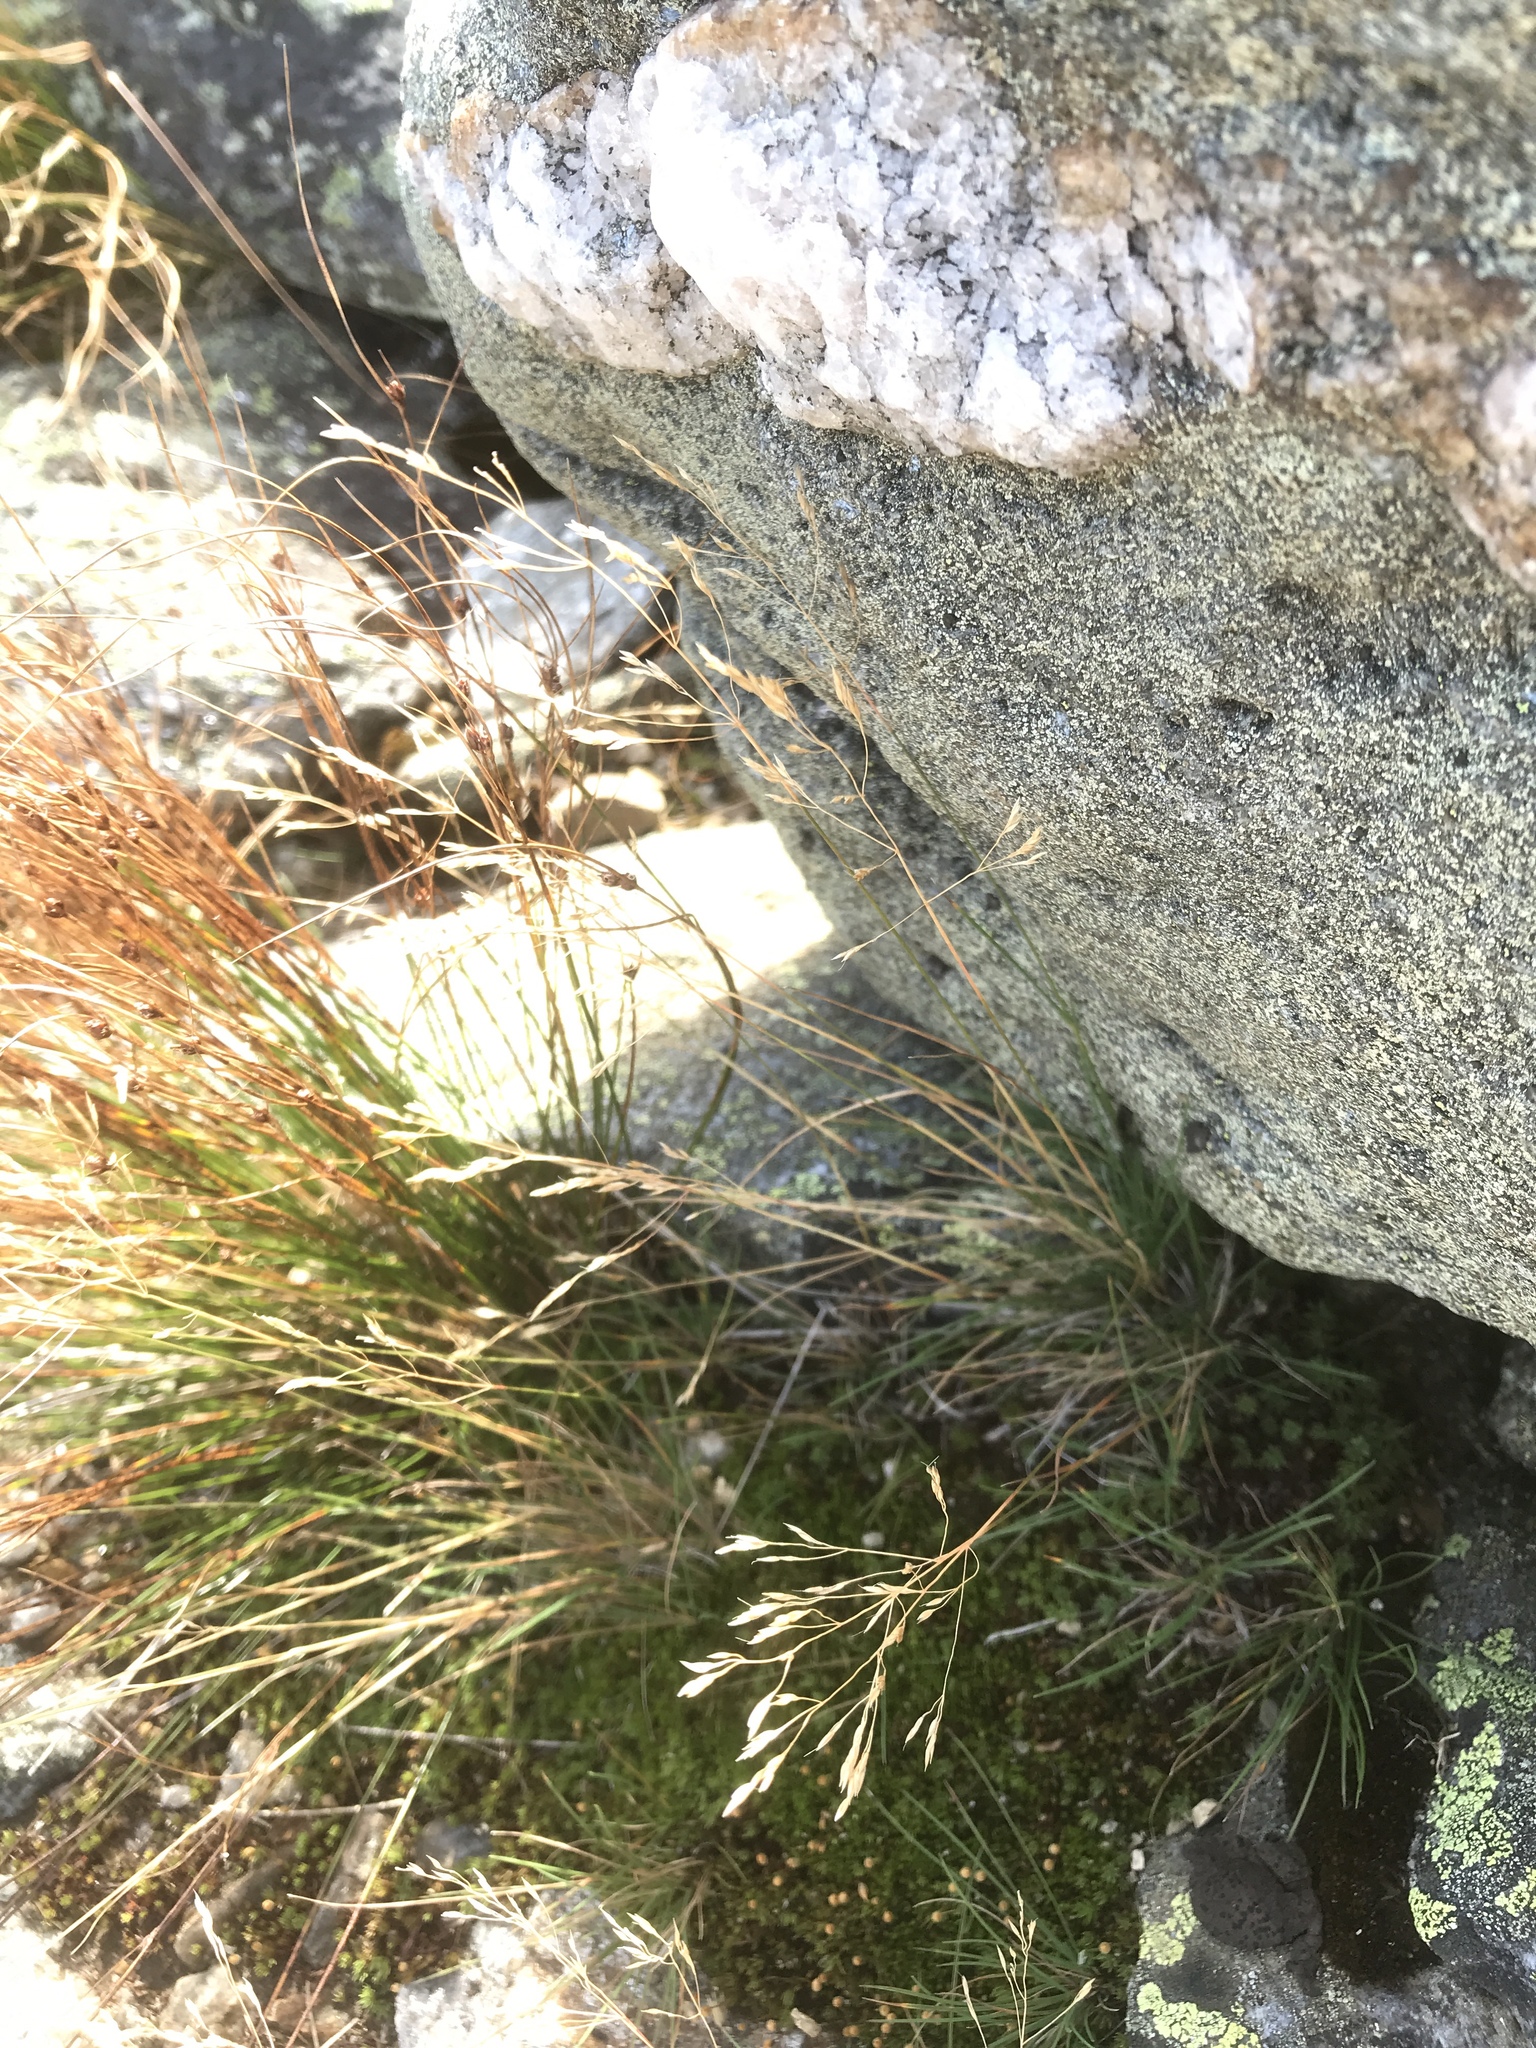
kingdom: Plantae
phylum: Tracheophyta
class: Liliopsida
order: Poales
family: Poaceae
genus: Agrostis
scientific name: Agrostis mertensii
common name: Northern bent
